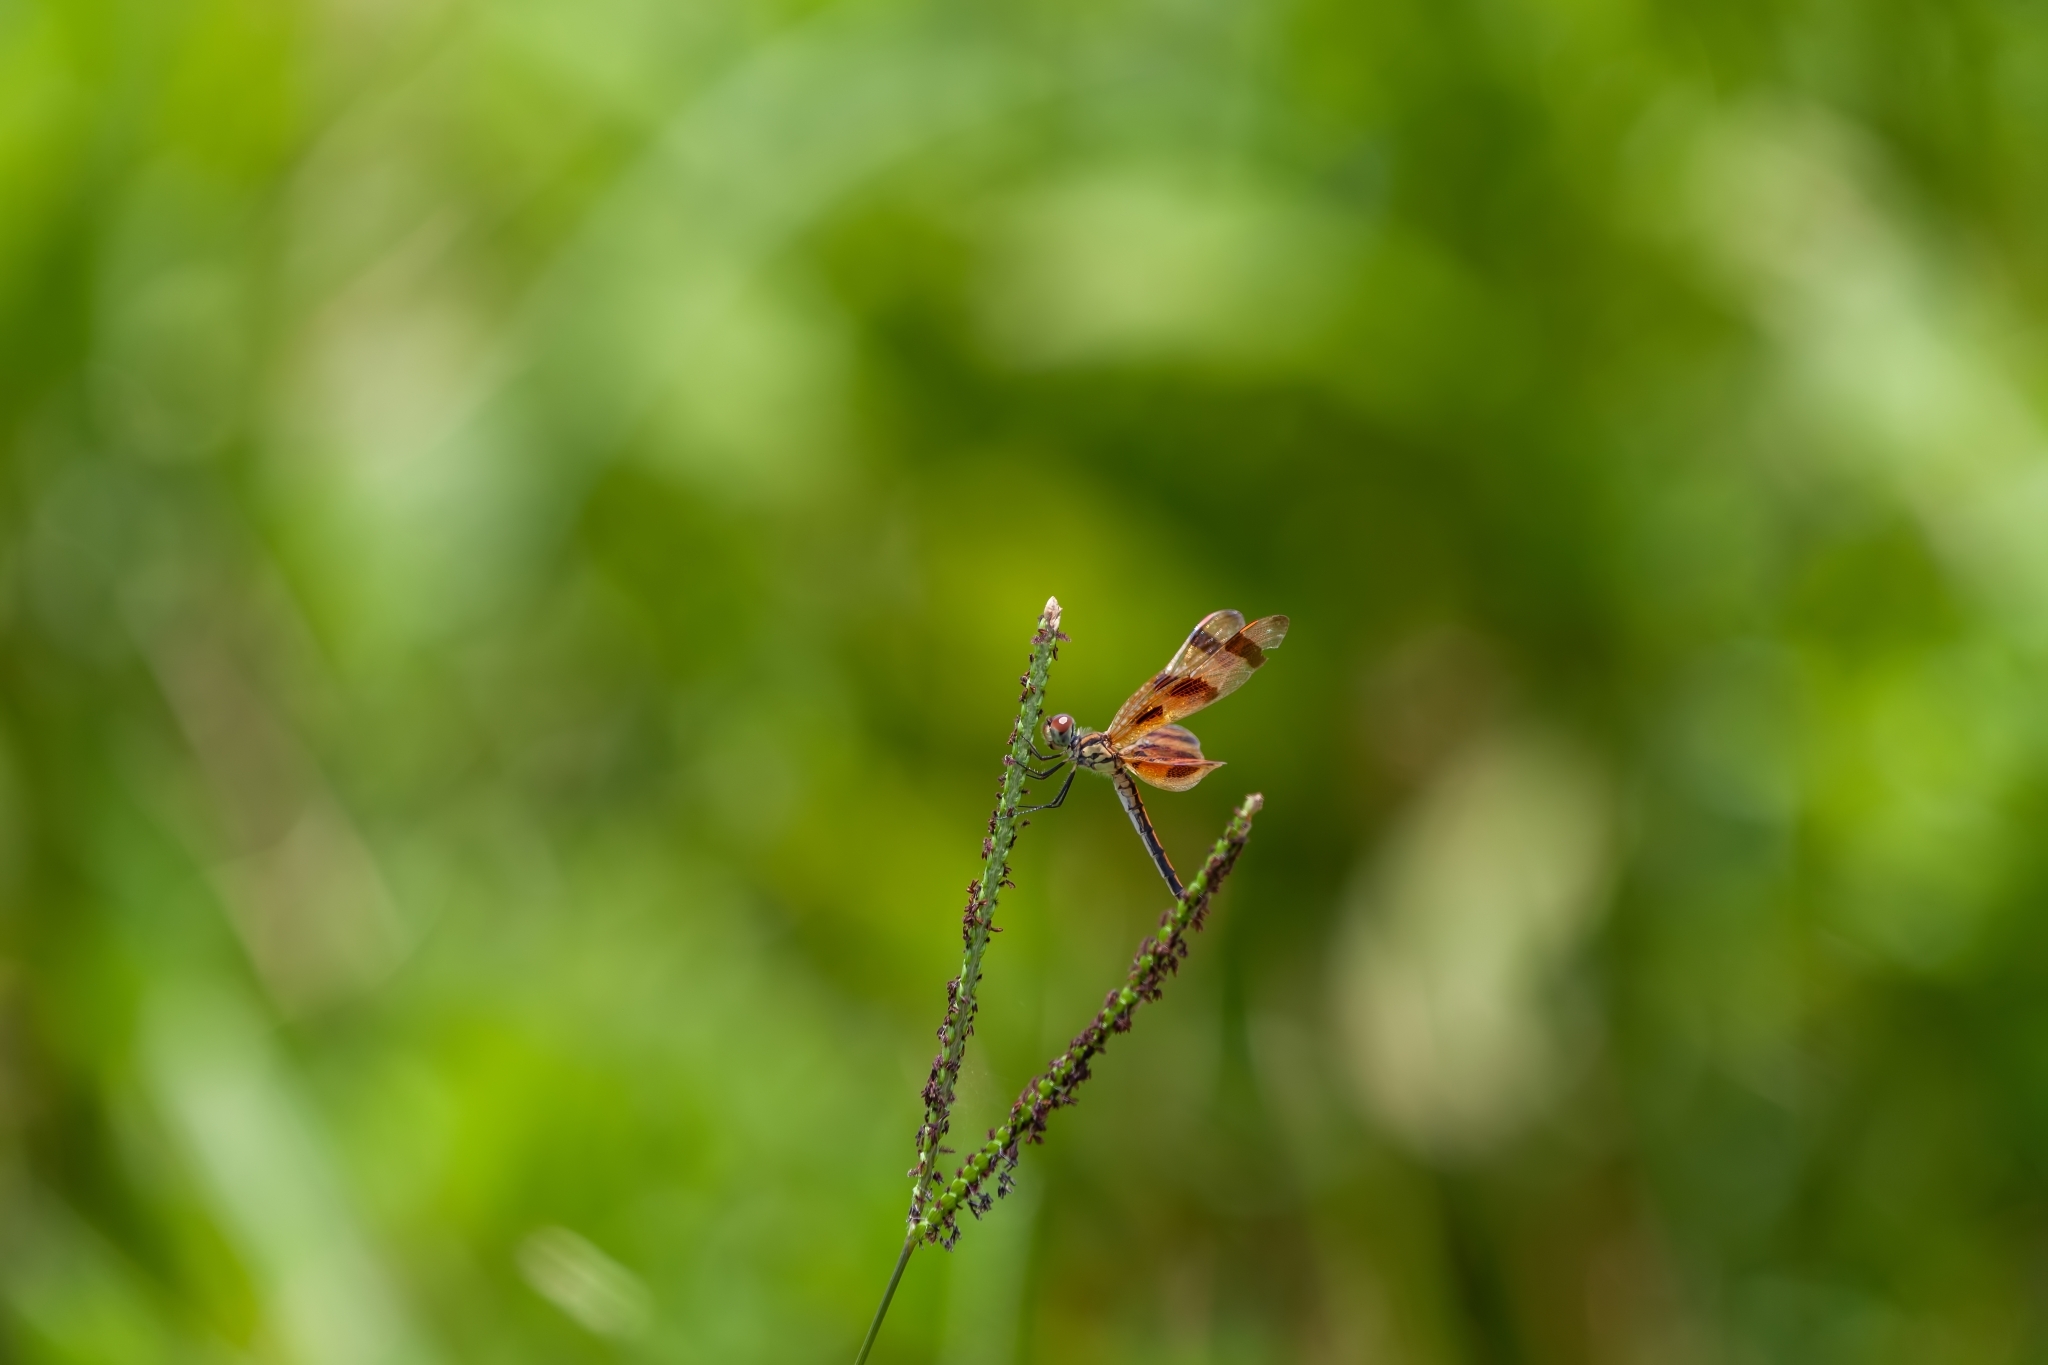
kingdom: Animalia
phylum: Arthropoda
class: Insecta
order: Odonata
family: Libellulidae
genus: Celithemis
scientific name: Celithemis eponina
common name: Halloween pennant
